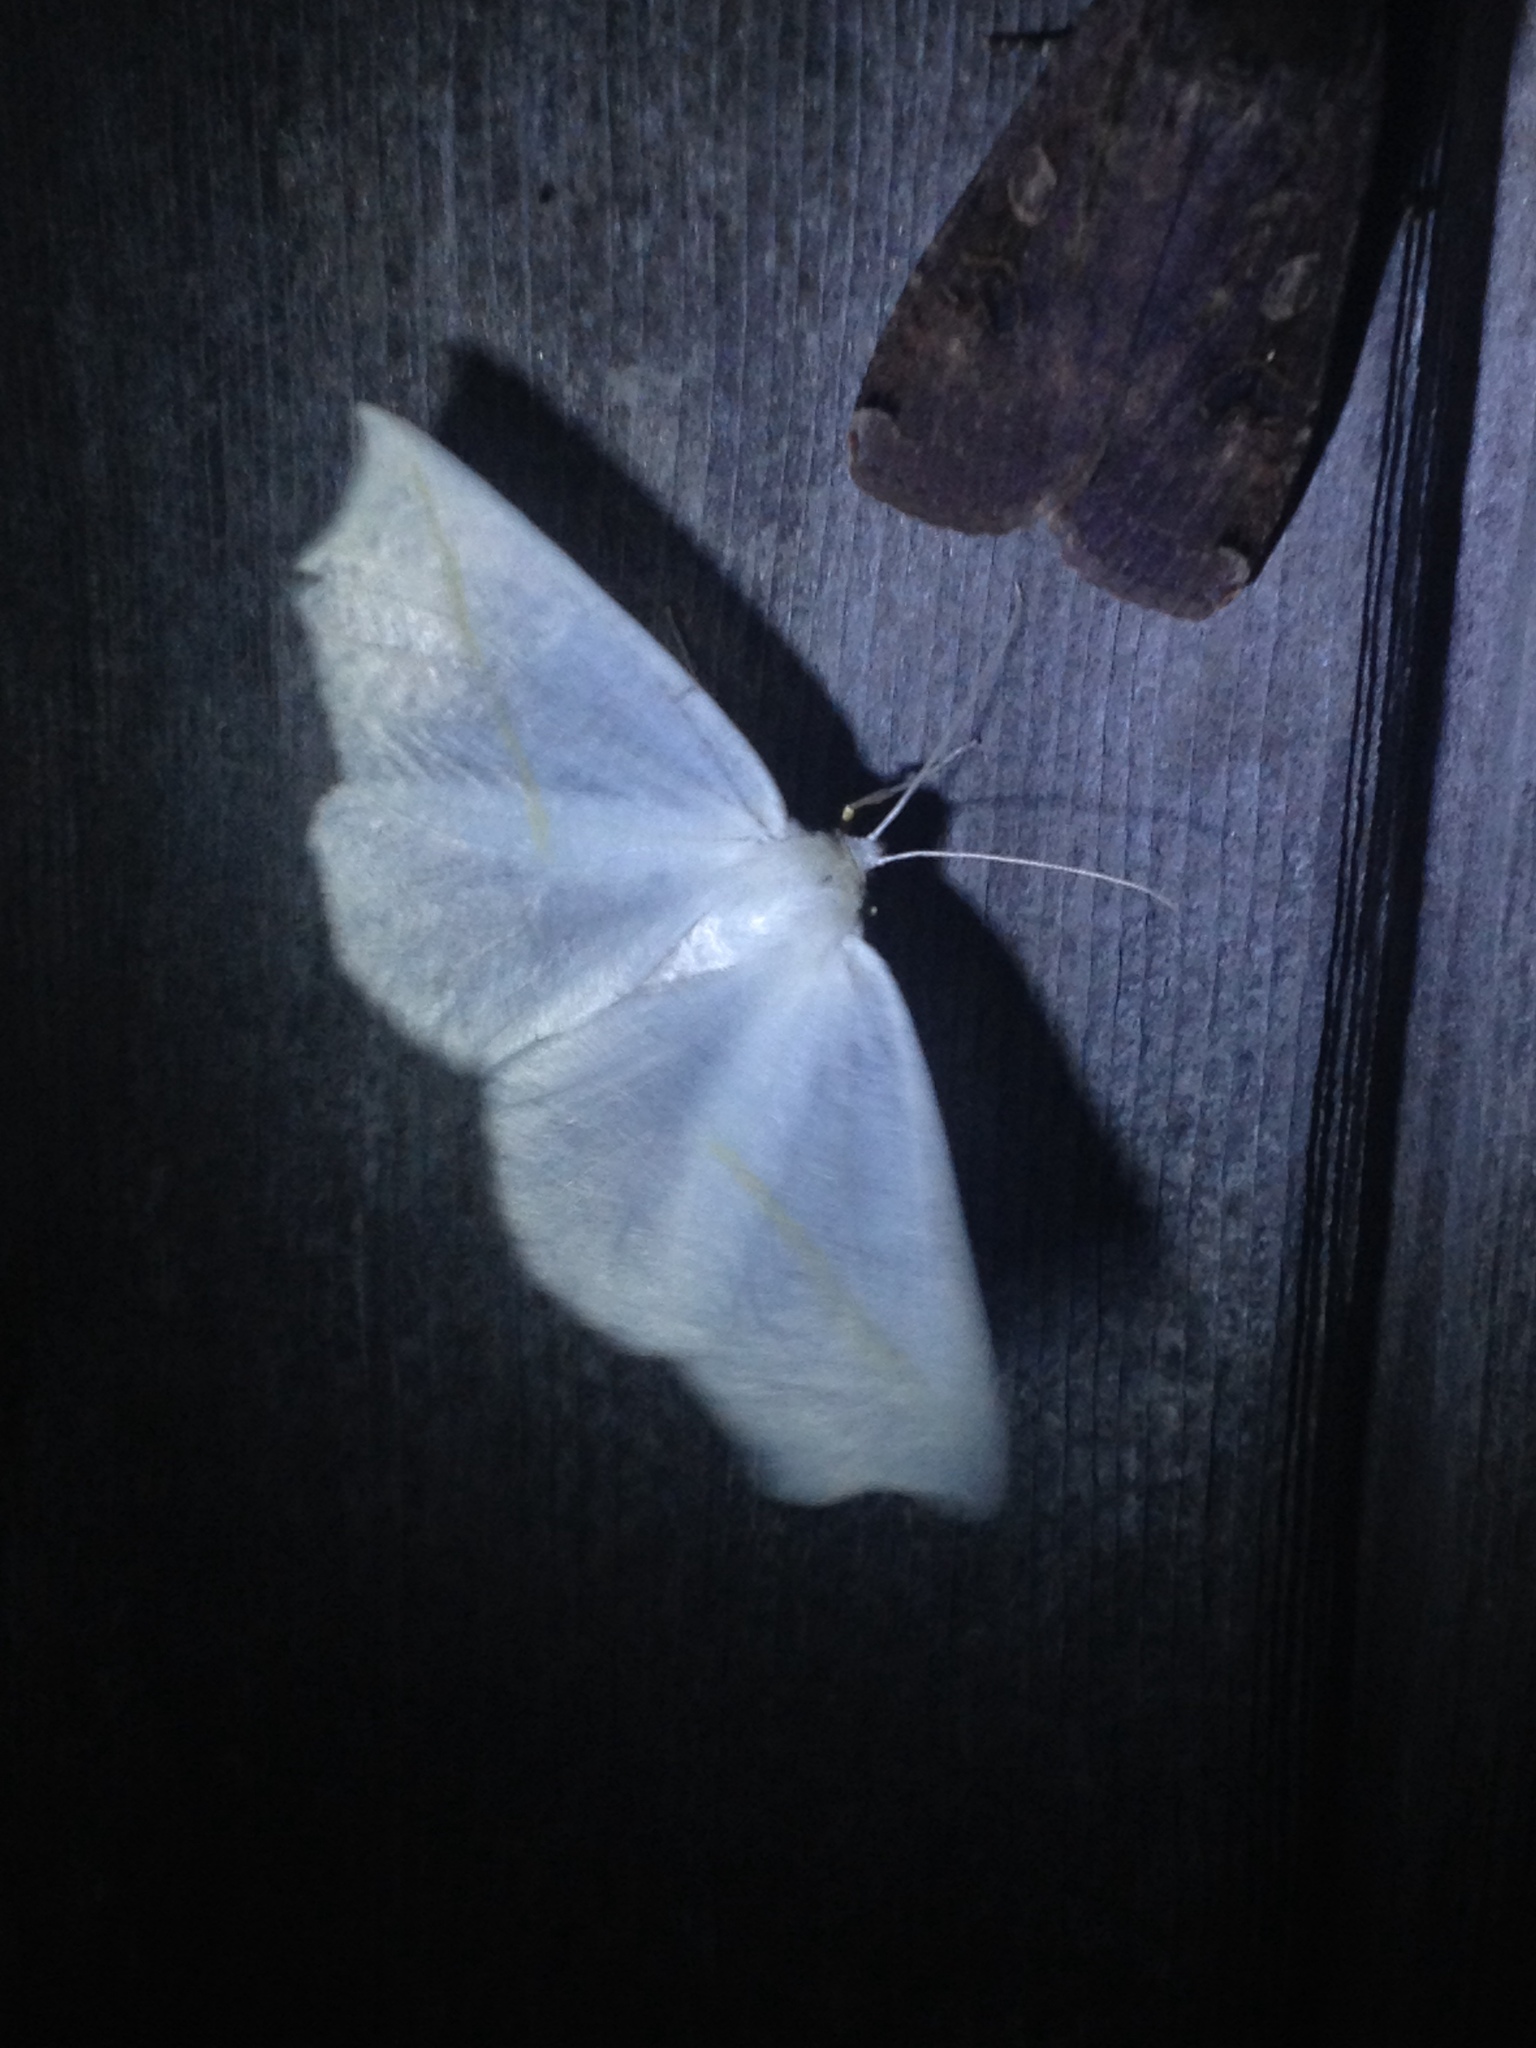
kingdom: Animalia
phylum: Arthropoda
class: Insecta
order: Lepidoptera
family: Geometridae
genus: Tetracis
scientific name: Tetracis cachexiata
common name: White slant-line
